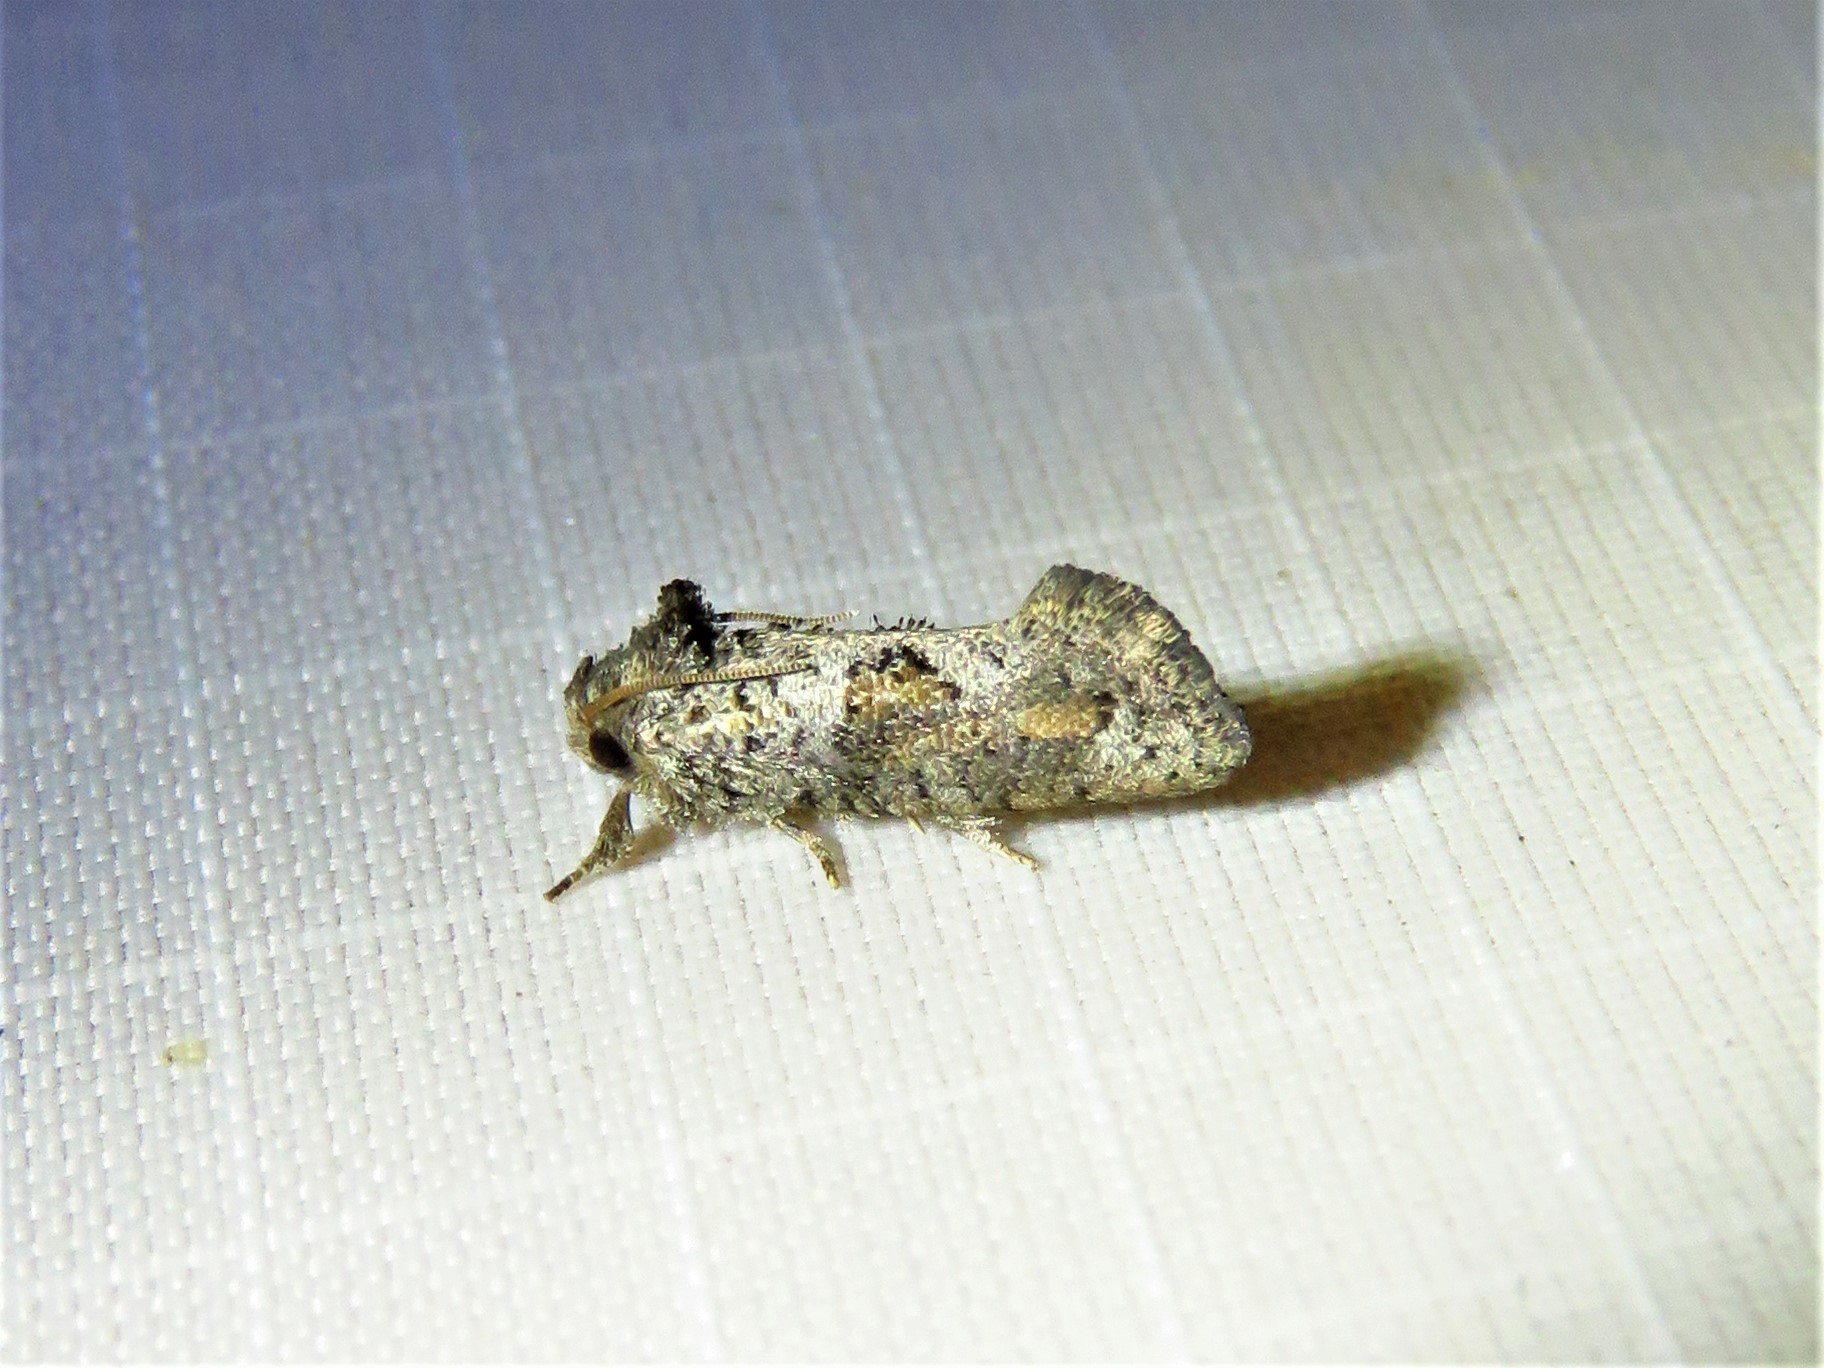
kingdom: Animalia
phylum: Arthropoda
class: Insecta
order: Lepidoptera
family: Tineidae
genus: Acrolophus
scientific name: Acrolophus piger
